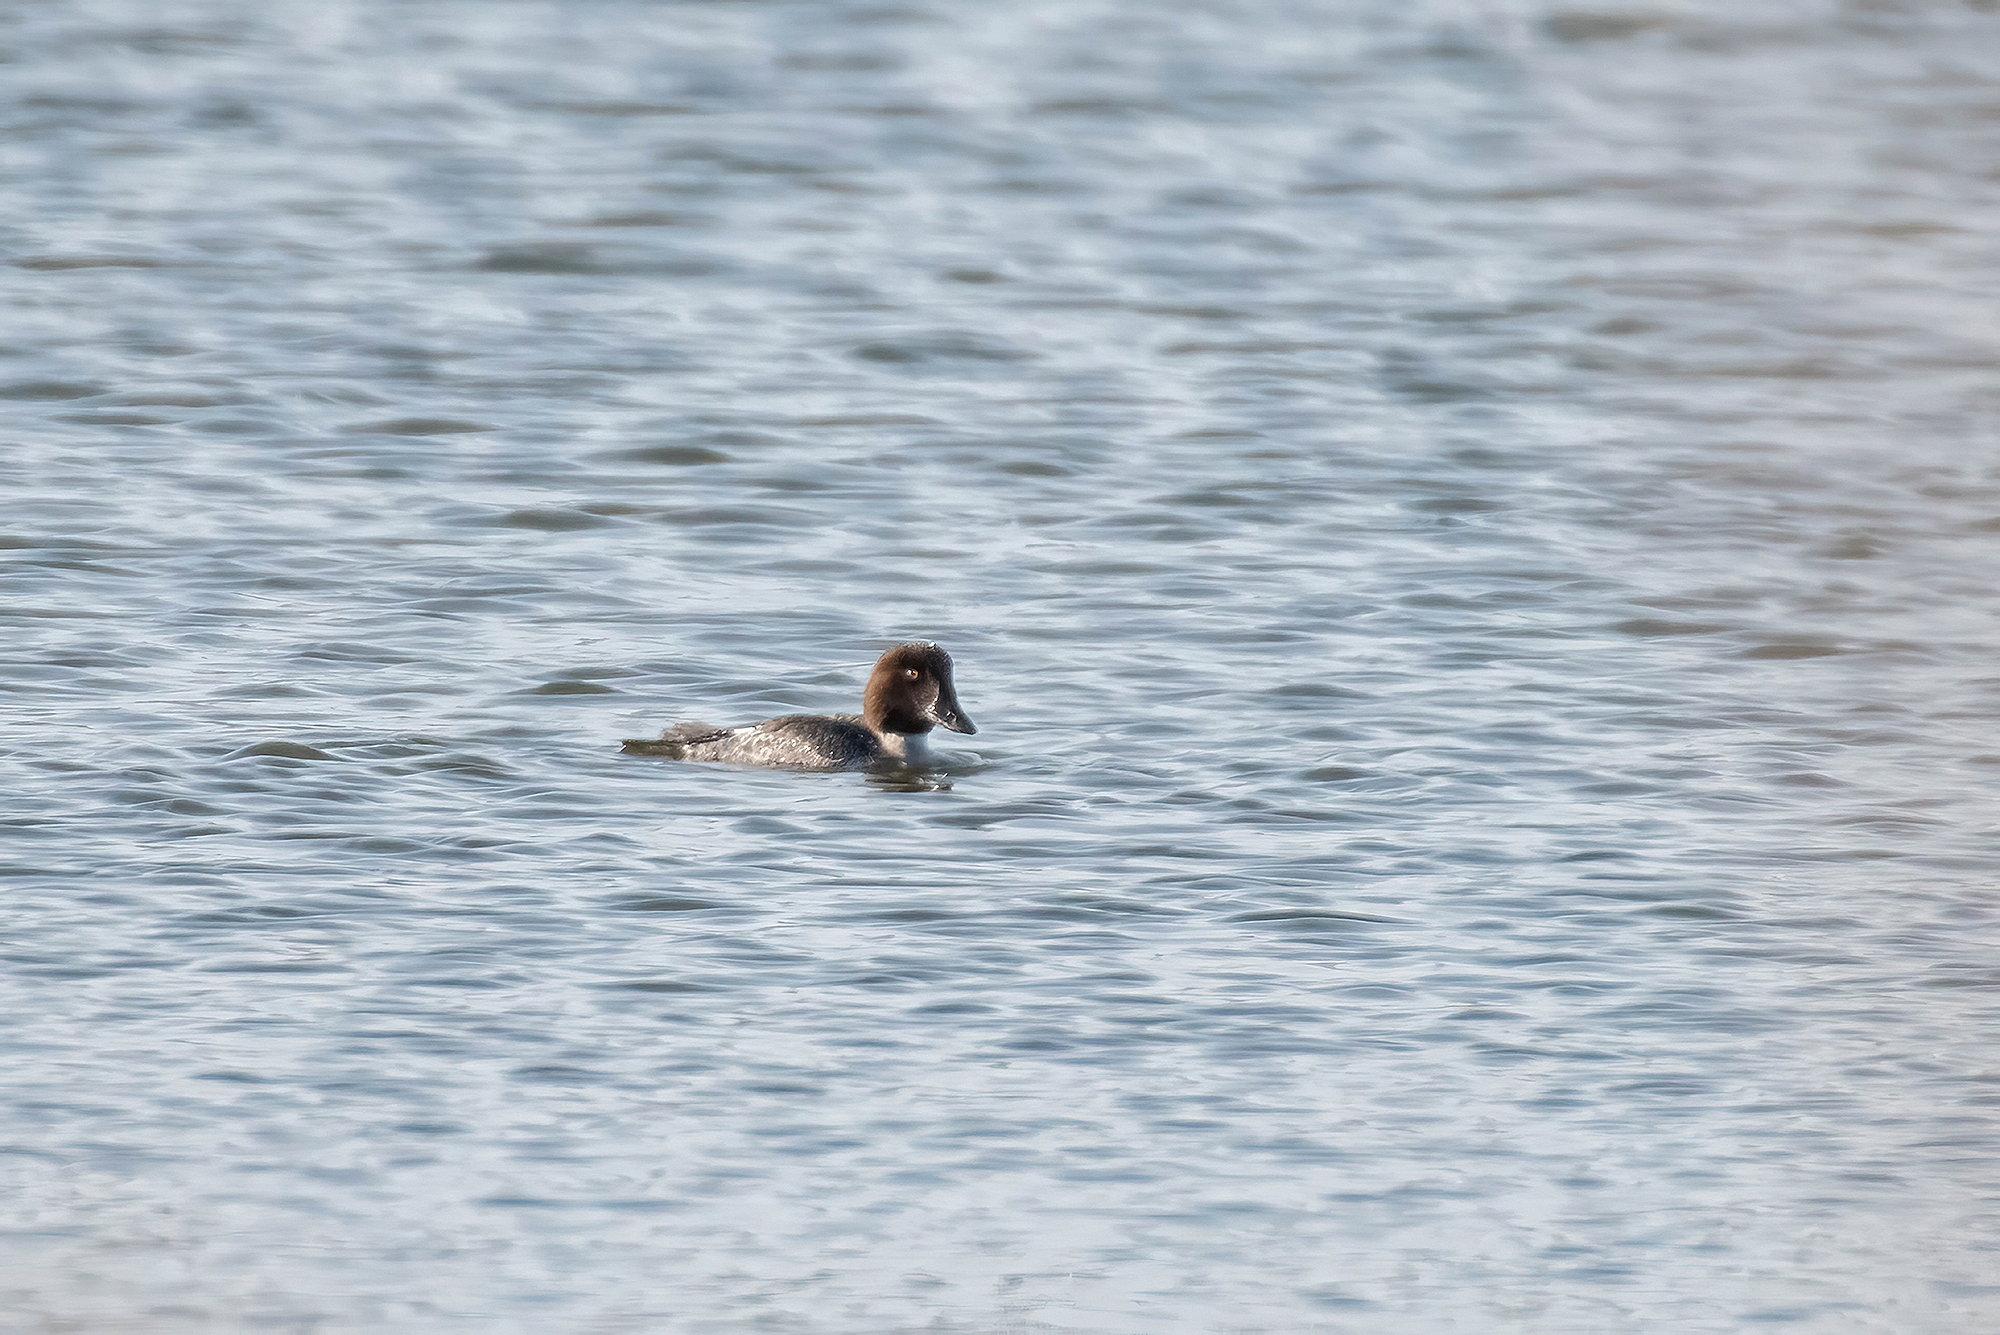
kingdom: Animalia
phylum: Chordata
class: Aves
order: Anseriformes
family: Anatidae
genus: Bucephala
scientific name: Bucephala clangula
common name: Common goldeneye
